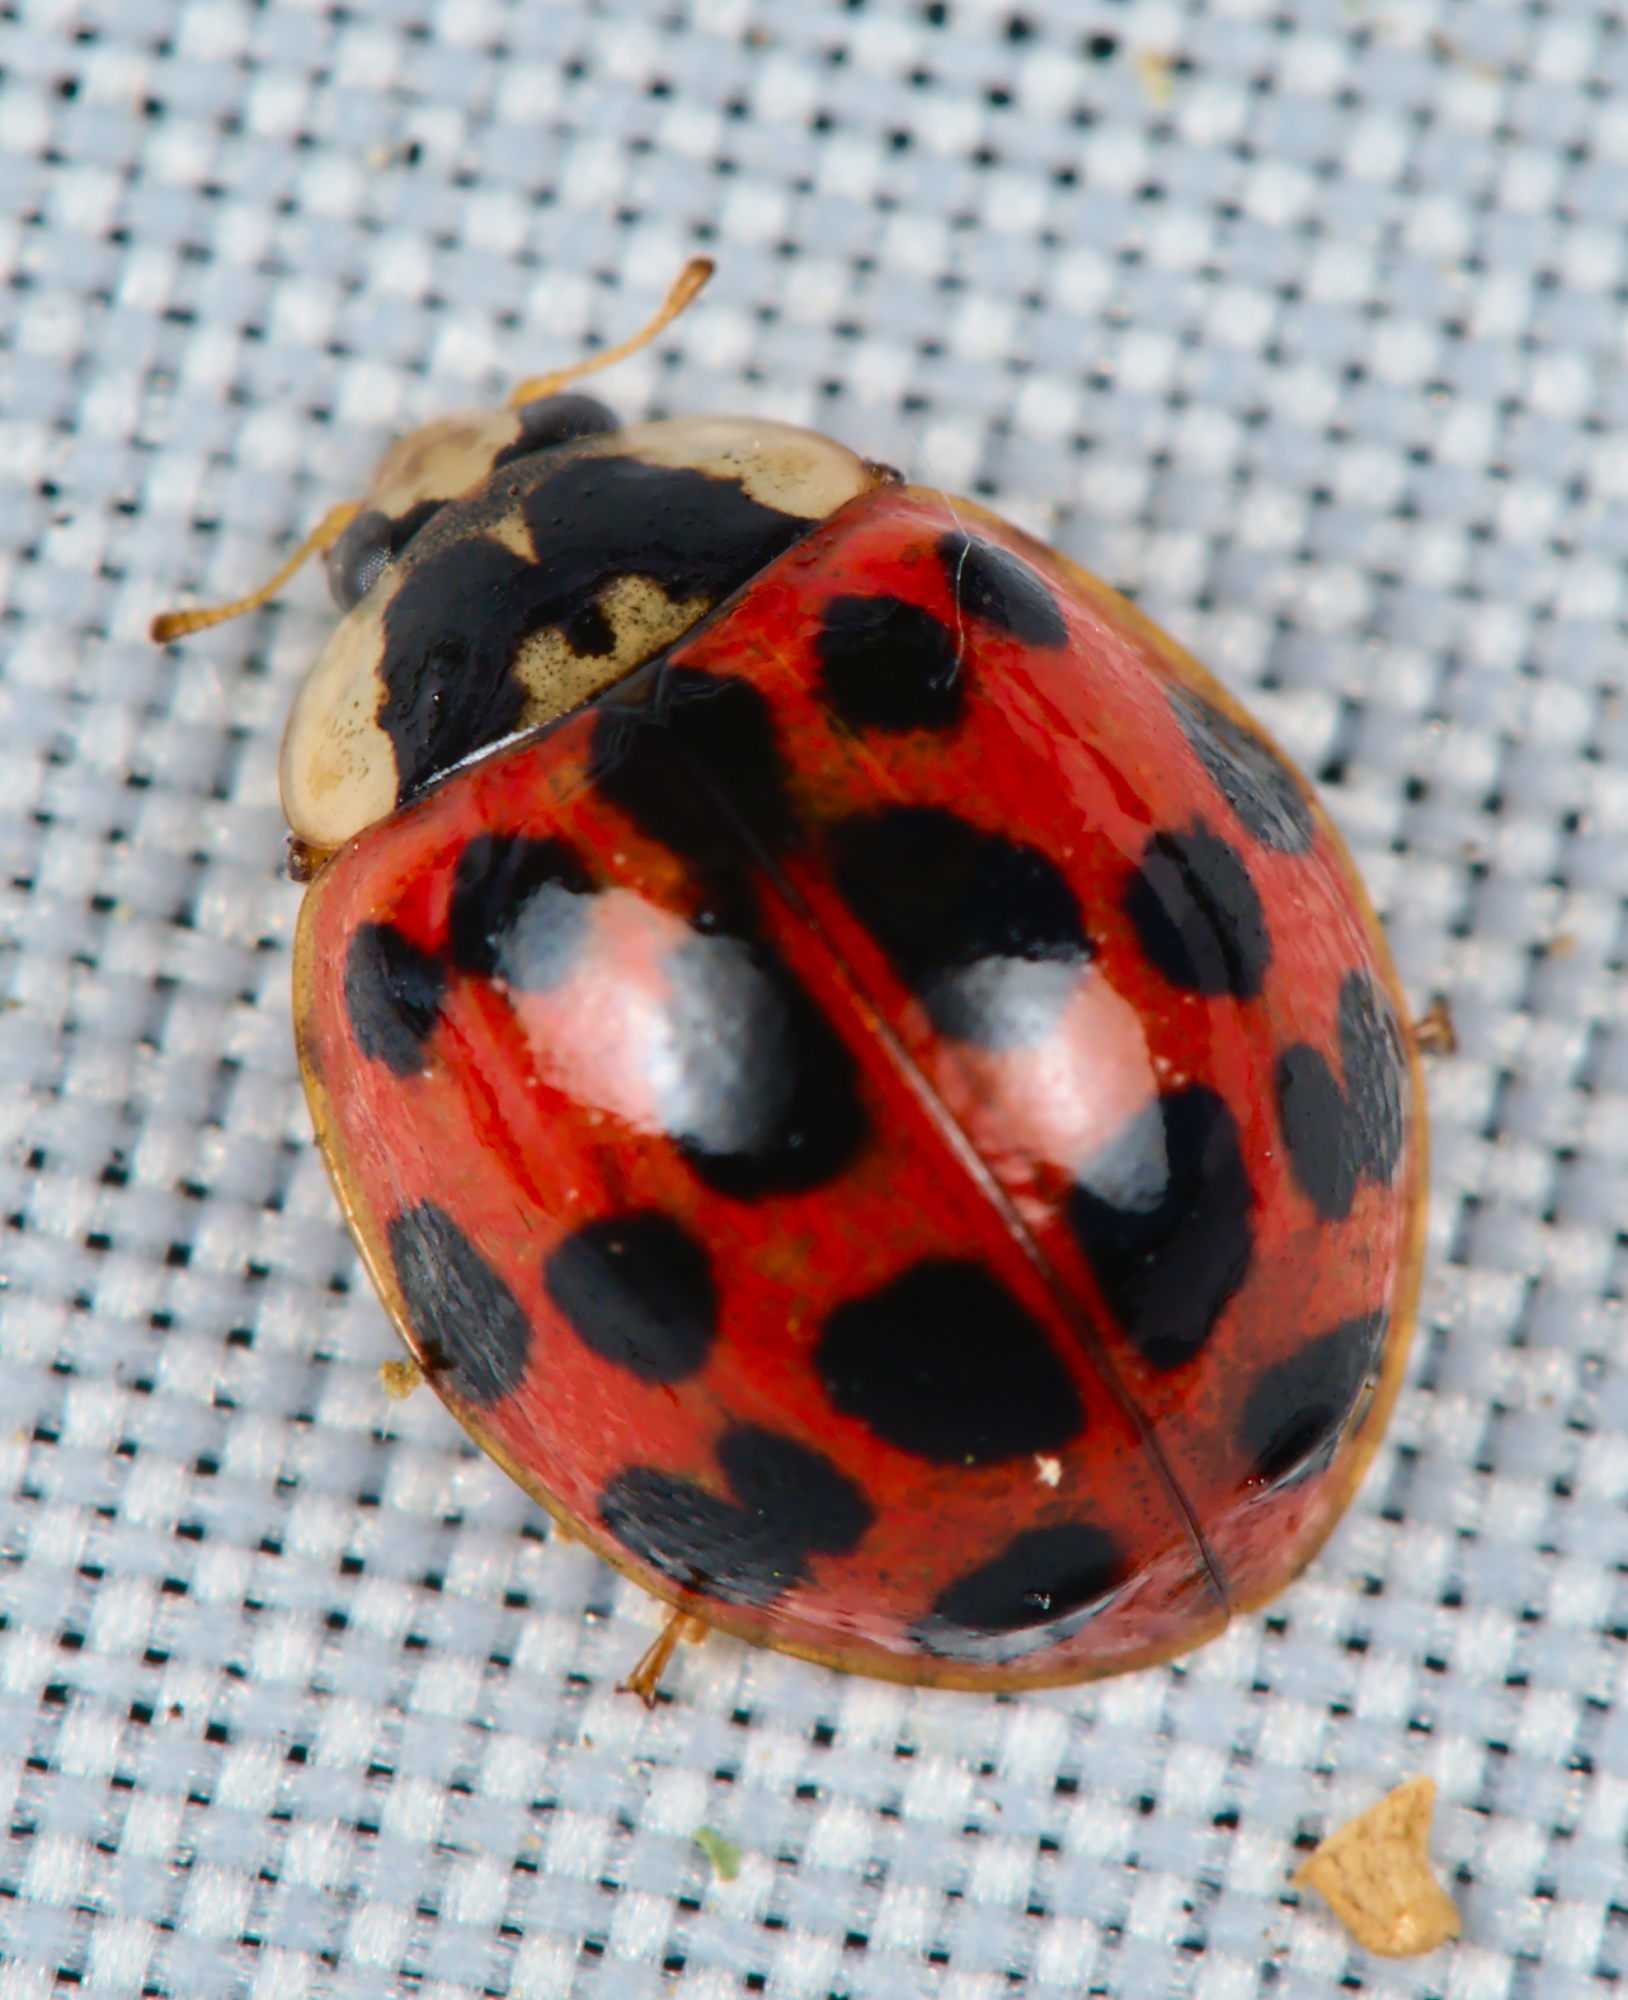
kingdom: Animalia
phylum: Arthropoda
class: Insecta
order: Coleoptera
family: Coccinellidae
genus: Harmonia
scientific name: Harmonia axyridis
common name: Harlequin ladybird
